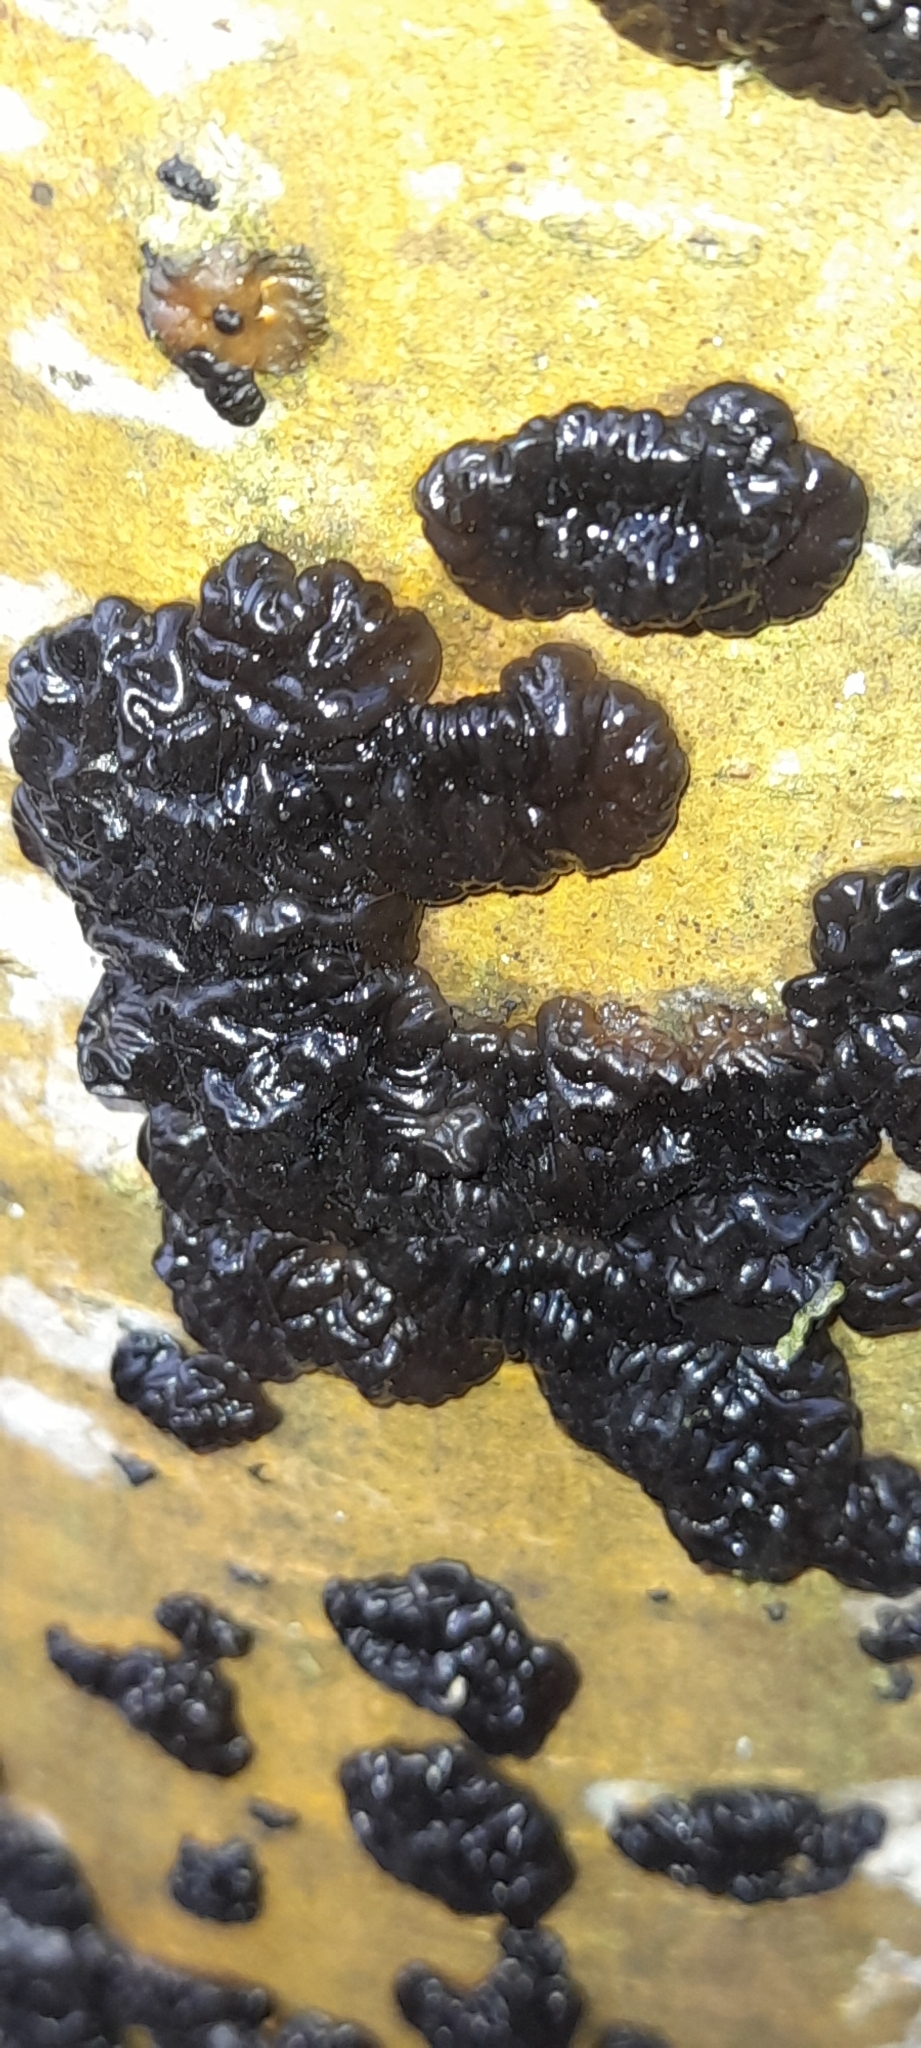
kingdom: Fungi
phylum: Basidiomycota
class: Agaricomycetes
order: Auriculariales
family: Auriculariaceae
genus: Exidia
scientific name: Exidia nigricans
